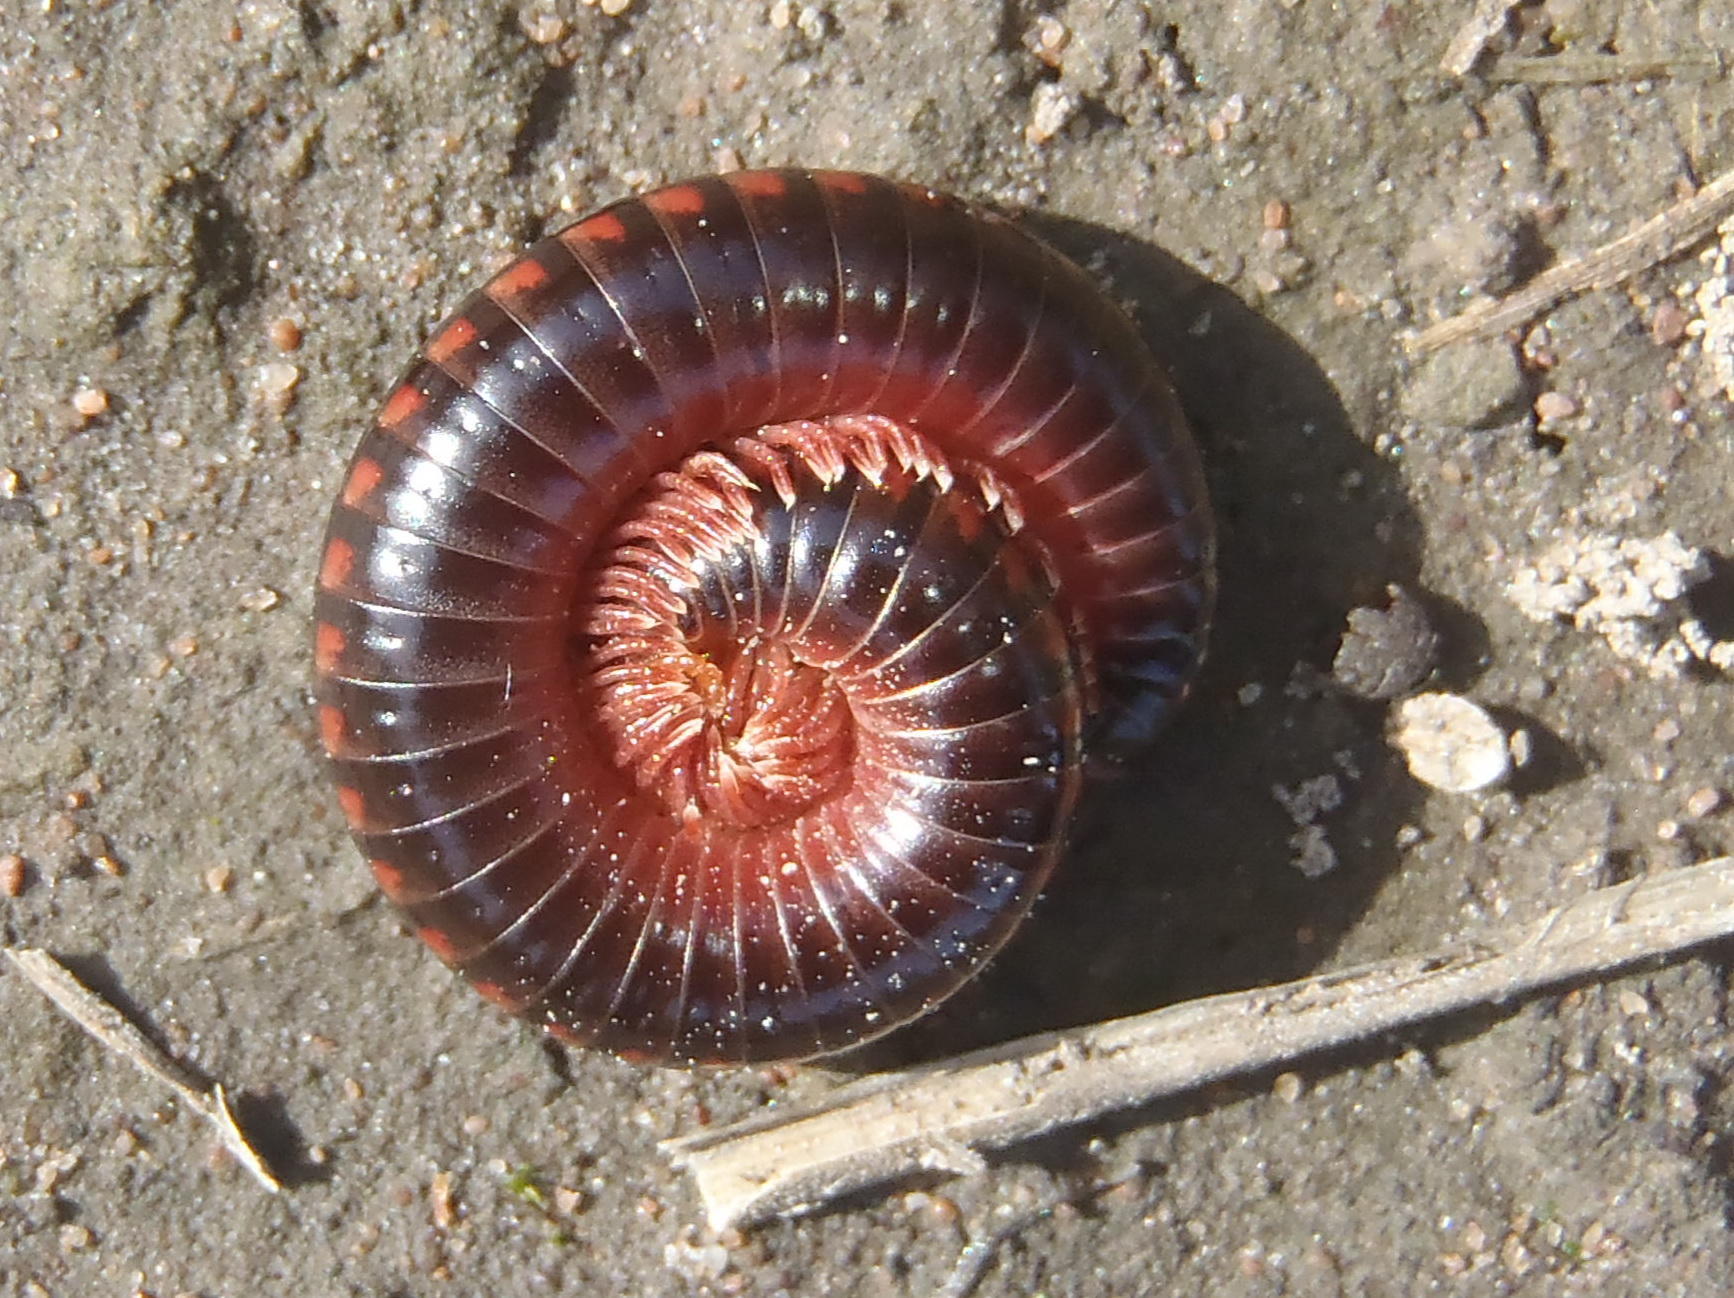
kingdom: Animalia
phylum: Arthropoda
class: Diplopoda
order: Spirobolida
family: Pachybolidae
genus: Centrobolus
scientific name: Centrobolus silvanus
